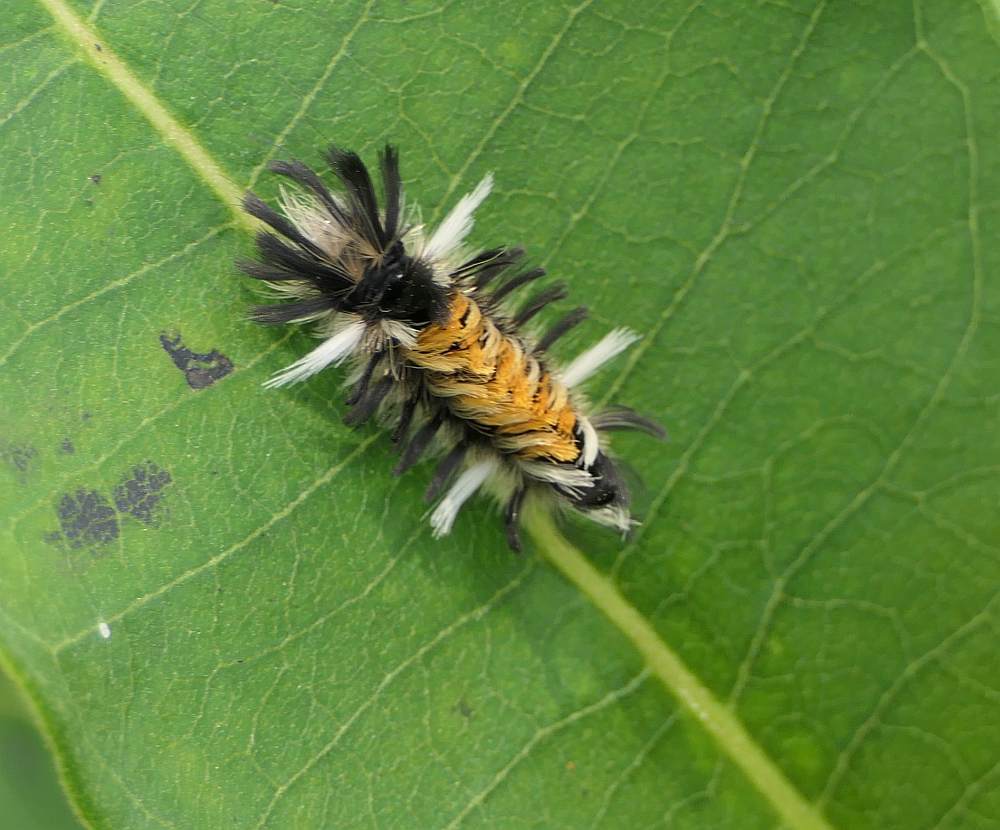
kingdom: Animalia
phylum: Arthropoda
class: Insecta
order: Lepidoptera
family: Erebidae
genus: Euchaetes
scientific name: Euchaetes egle
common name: Milkweed tussock moth
